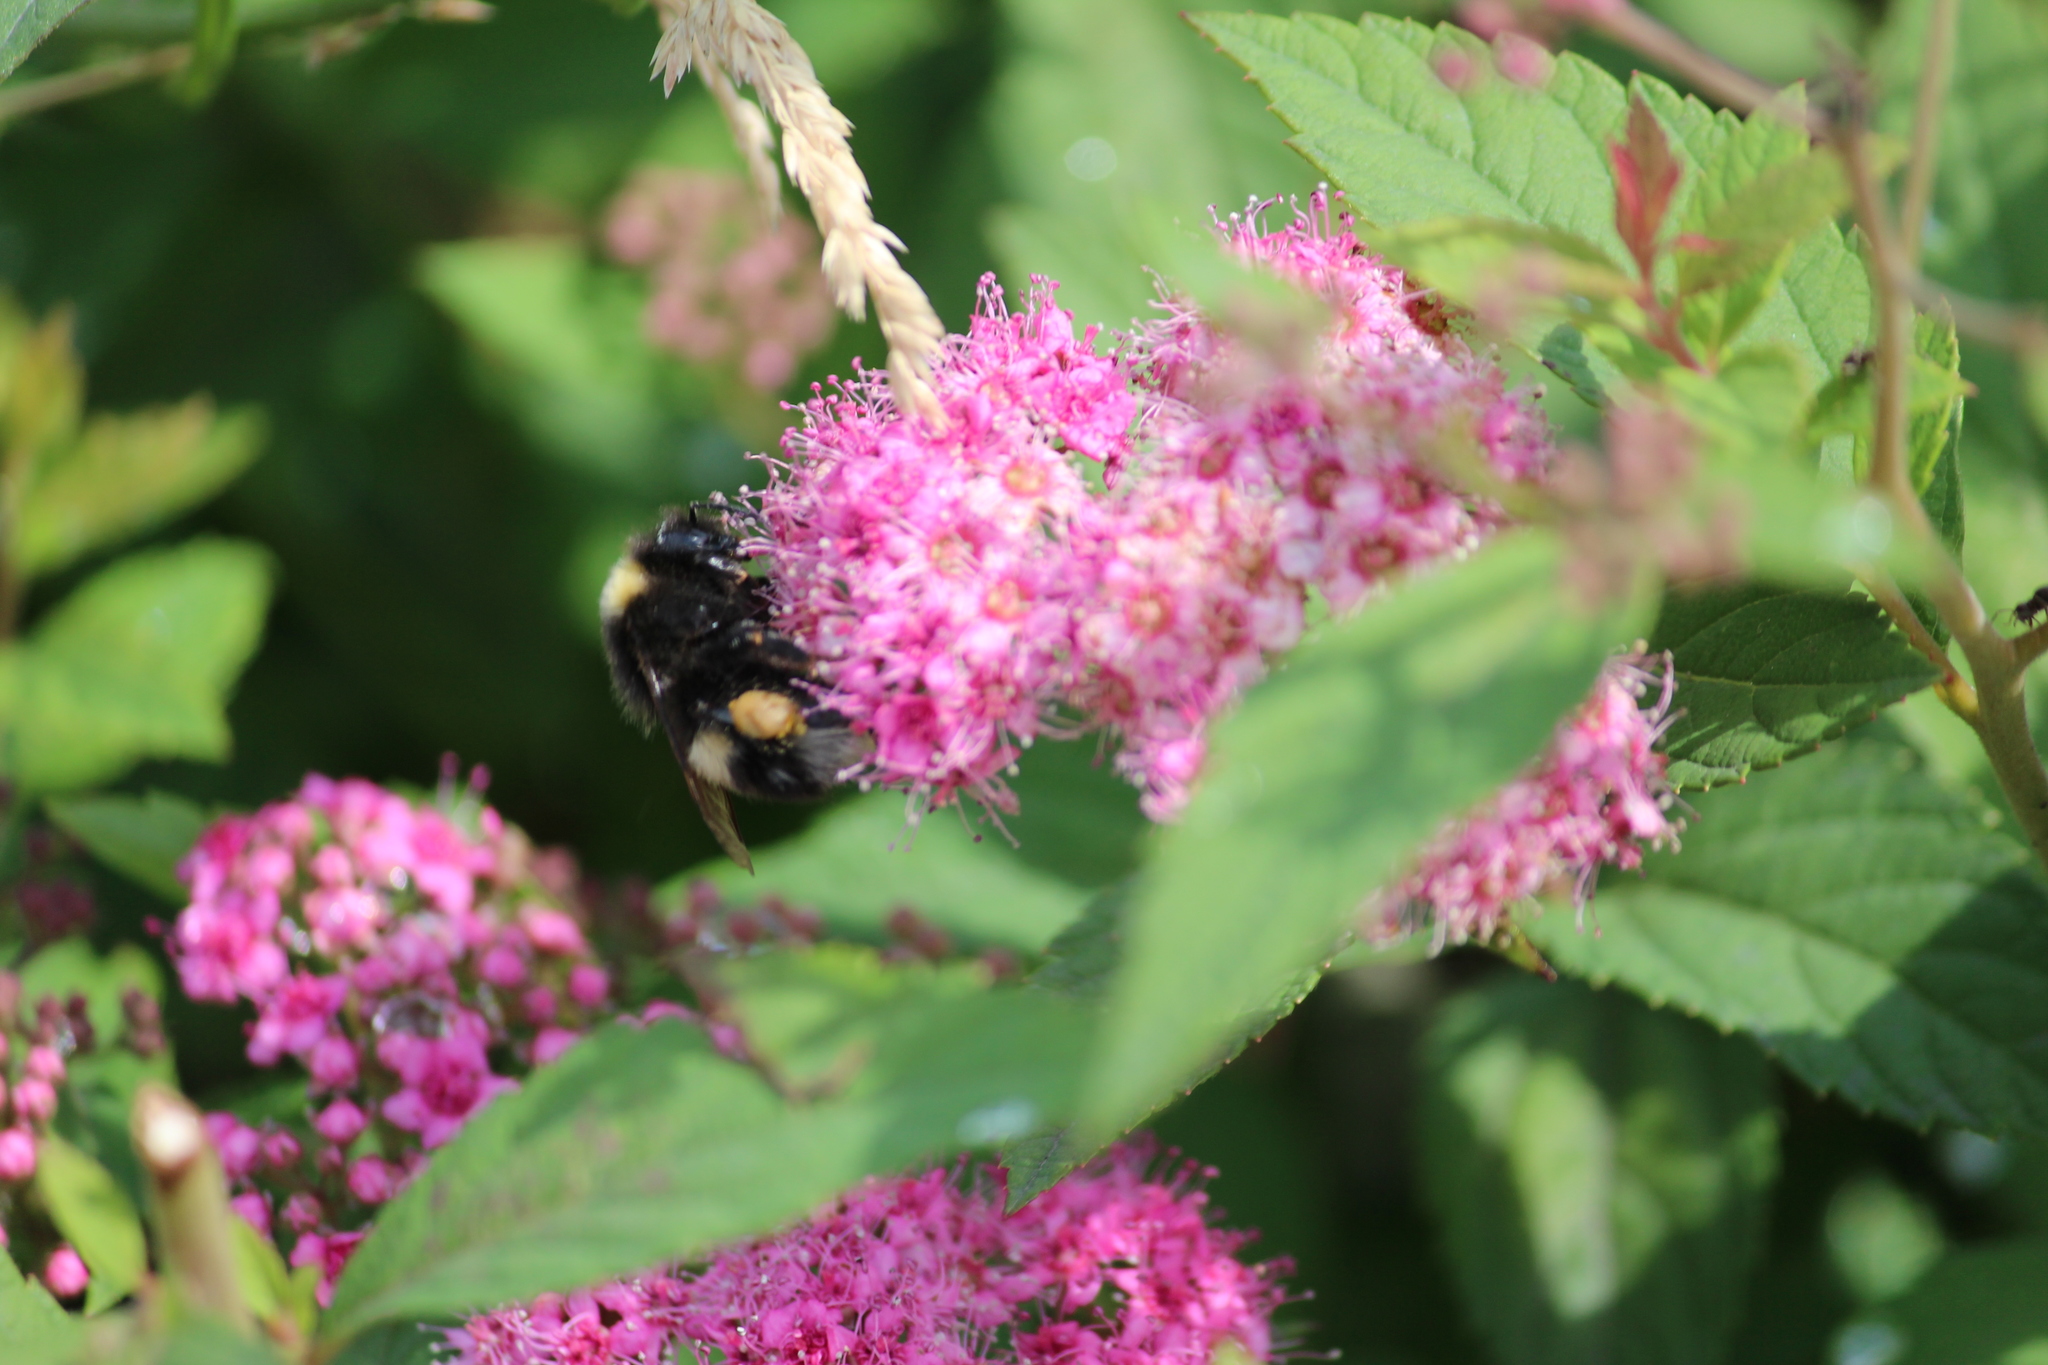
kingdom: Animalia
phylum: Arthropoda
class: Insecta
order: Hymenoptera
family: Apidae
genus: Bombus
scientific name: Bombus
